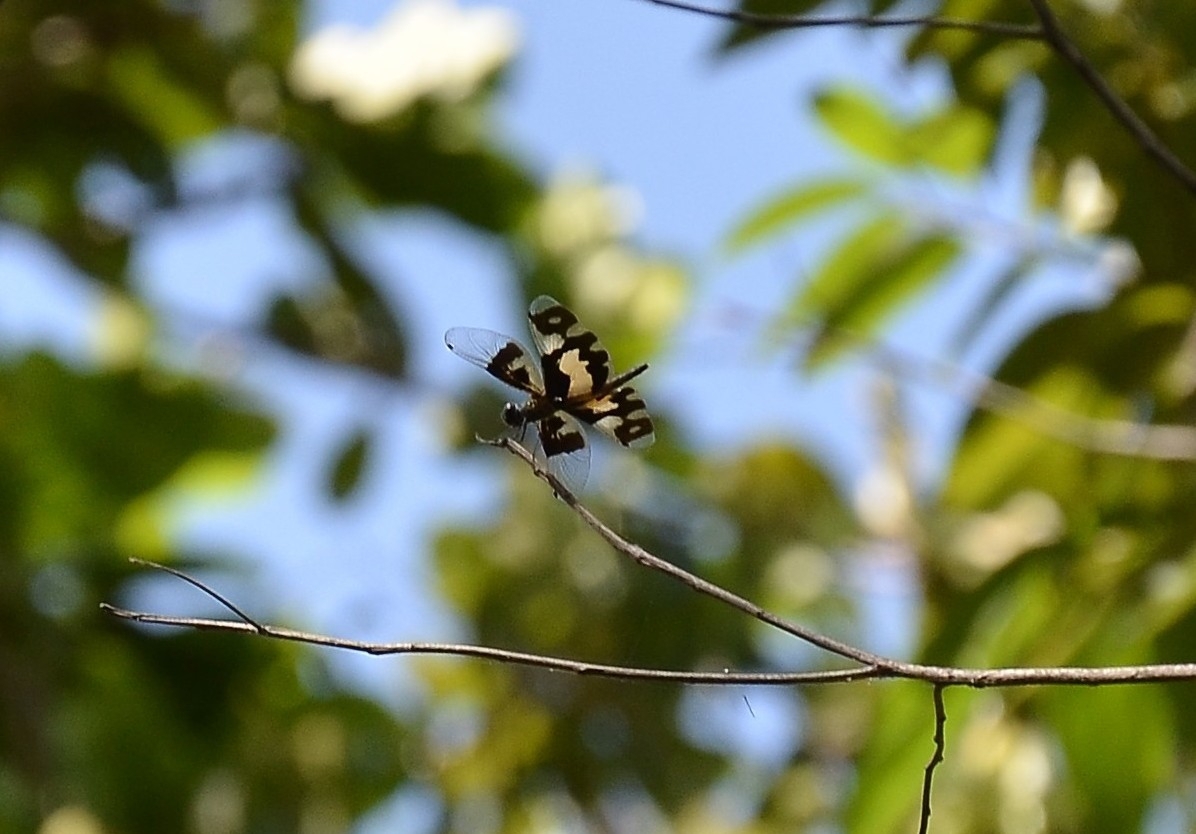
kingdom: Animalia
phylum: Arthropoda
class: Insecta
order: Odonata
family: Libellulidae
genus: Rhyothemis
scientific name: Rhyothemis variegata
